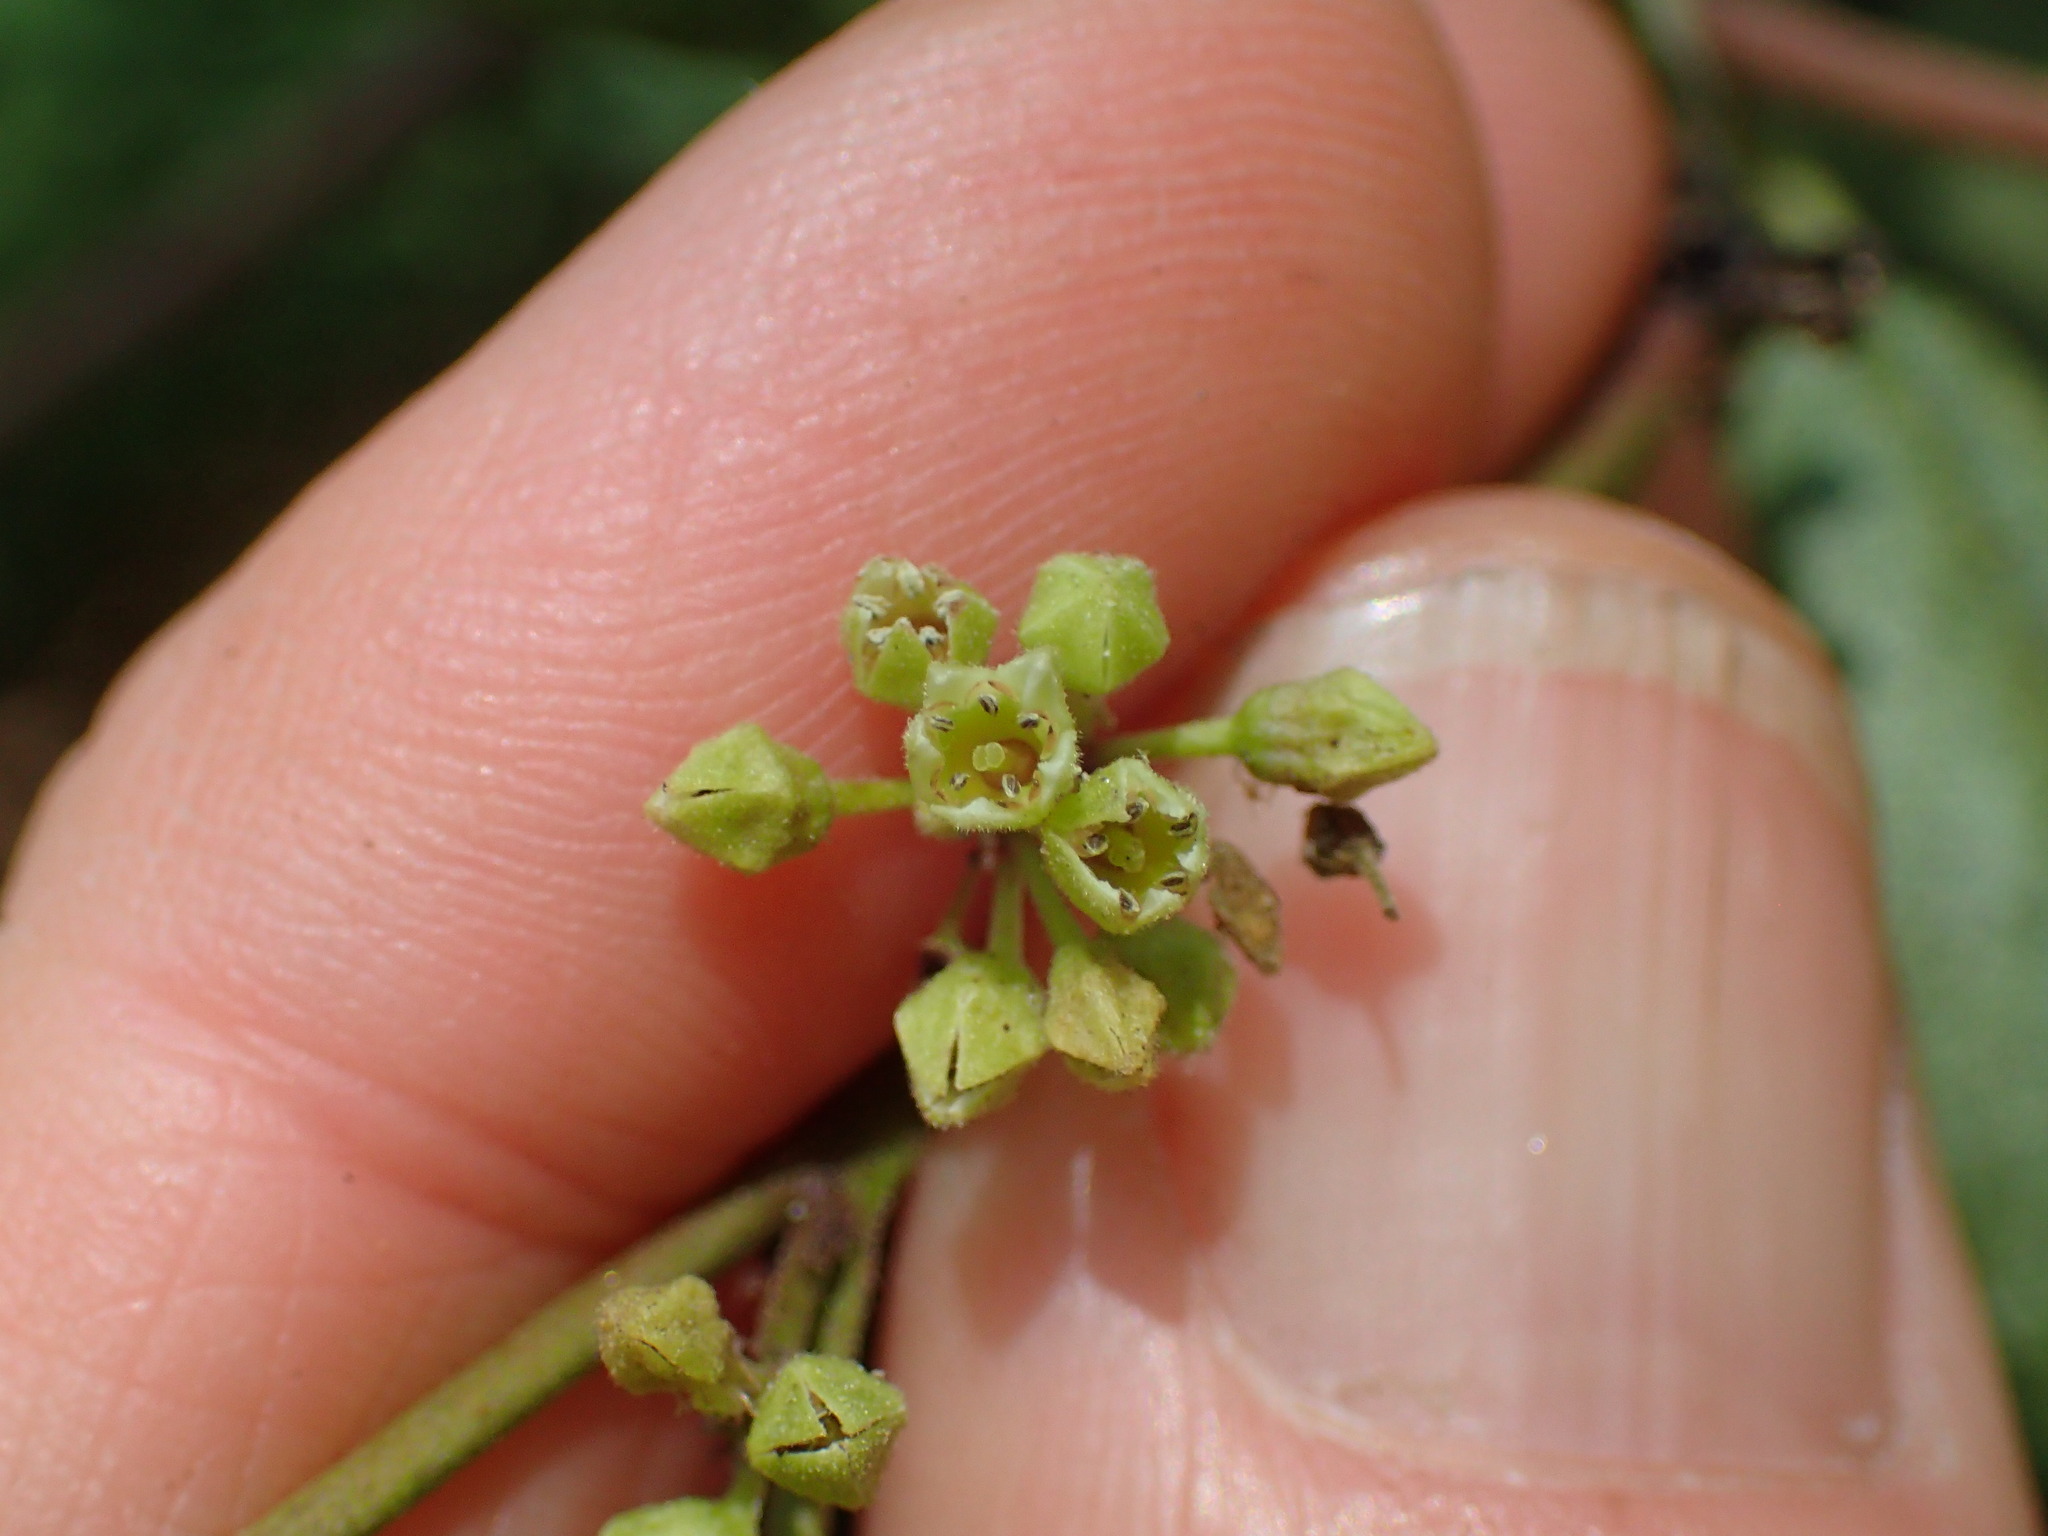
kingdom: Plantae
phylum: Tracheophyta
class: Magnoliopsida
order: Rosales
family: Rhamnaceae
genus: Frangula
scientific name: Frangula californica
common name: California buckthorn
